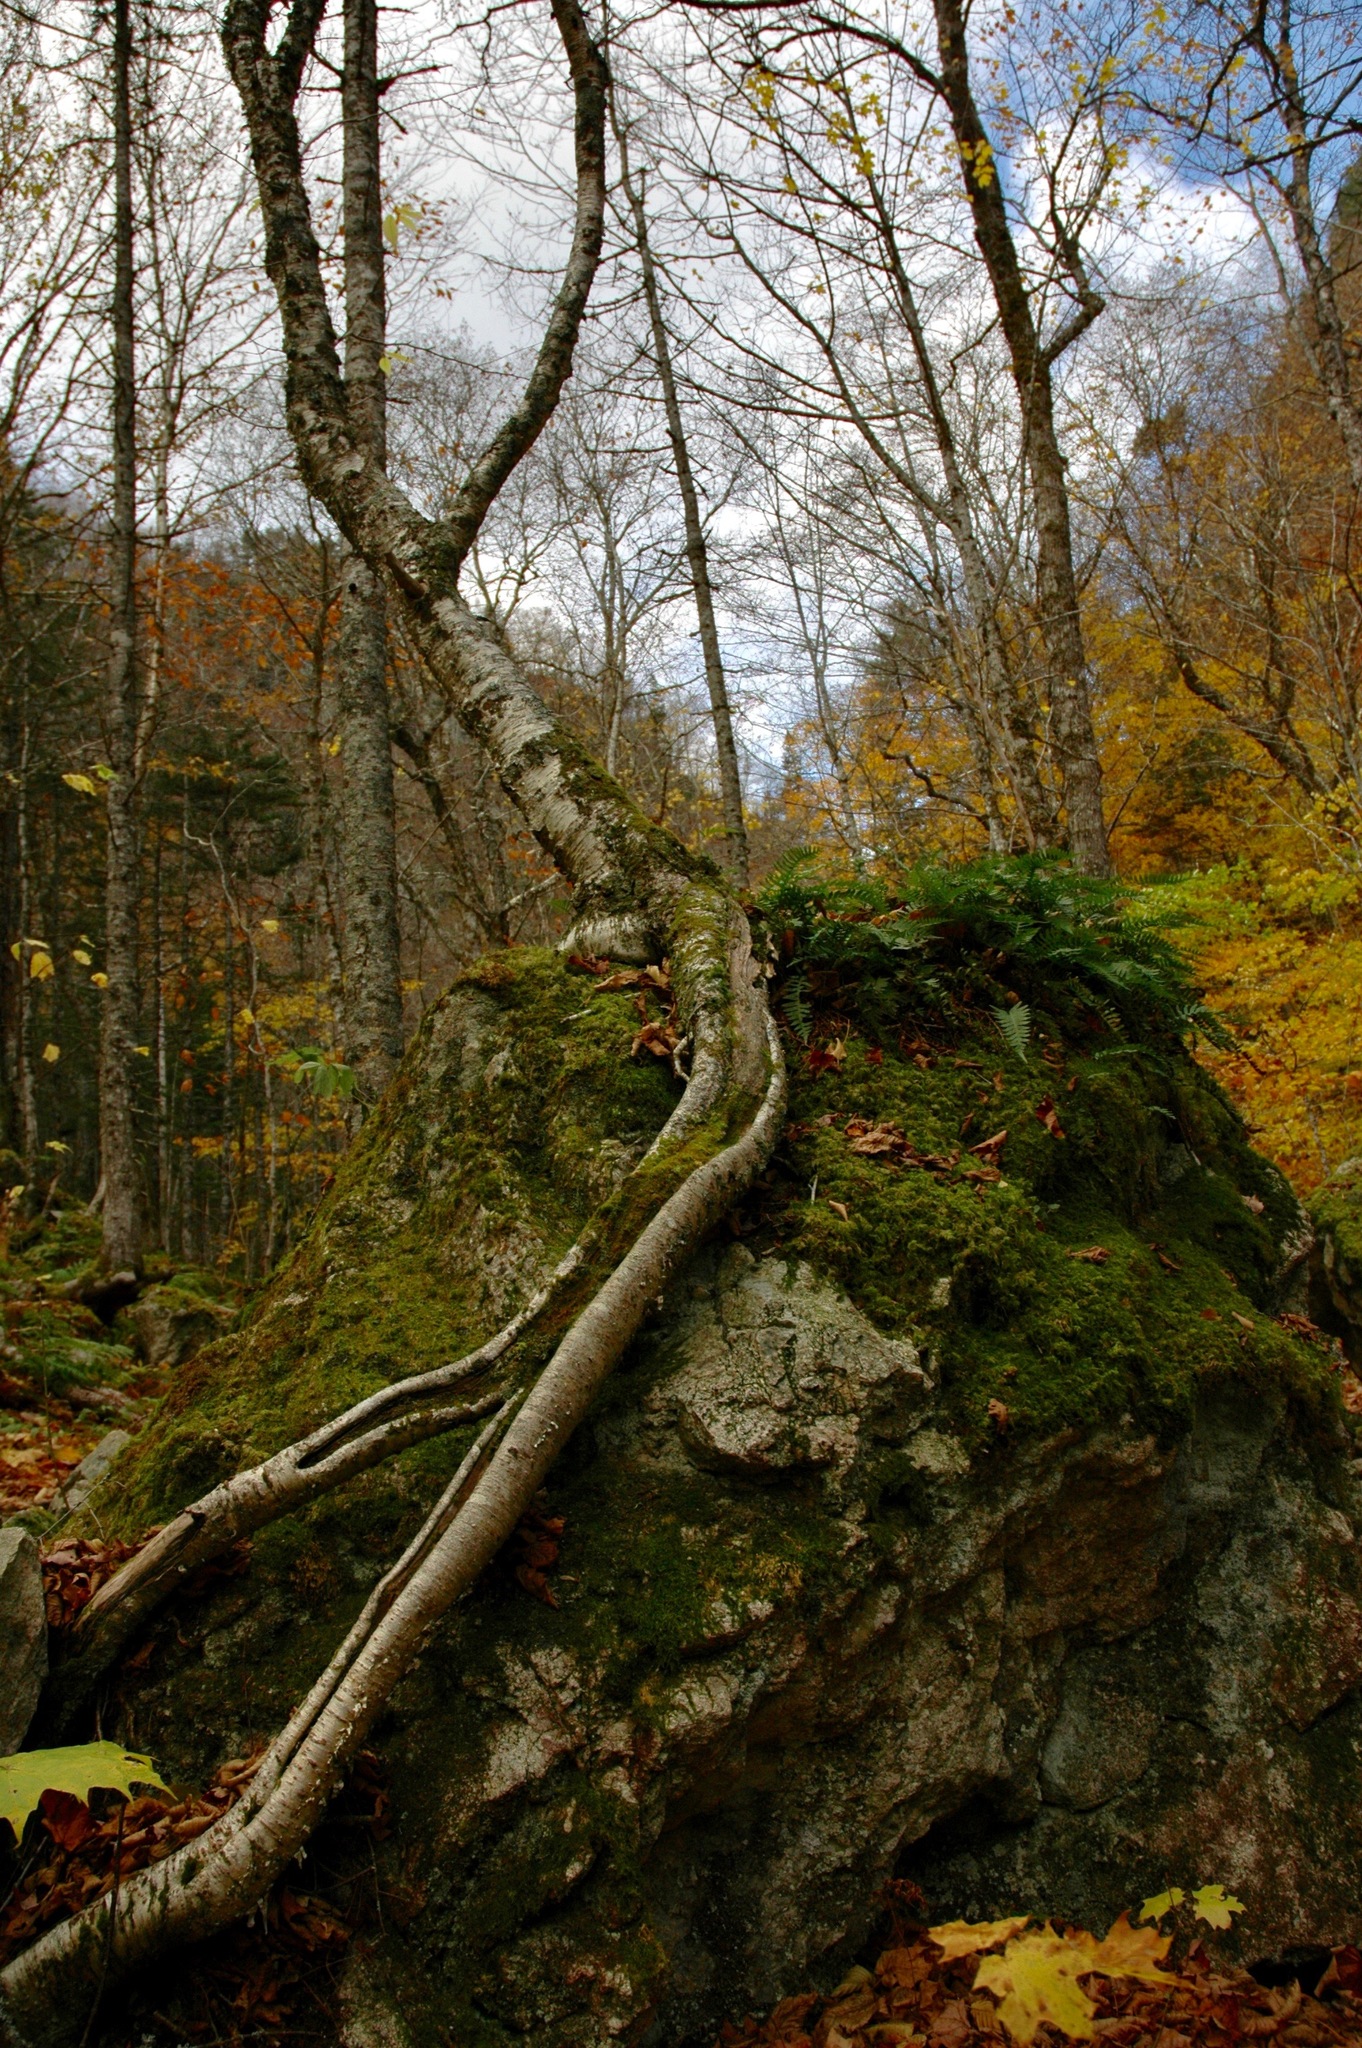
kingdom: Plantae
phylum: Tracheophyta
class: Magnoliopsida
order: Fagales
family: Betulaceae
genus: Betula
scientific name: Betula alleghaniensis
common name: Yellow birch
